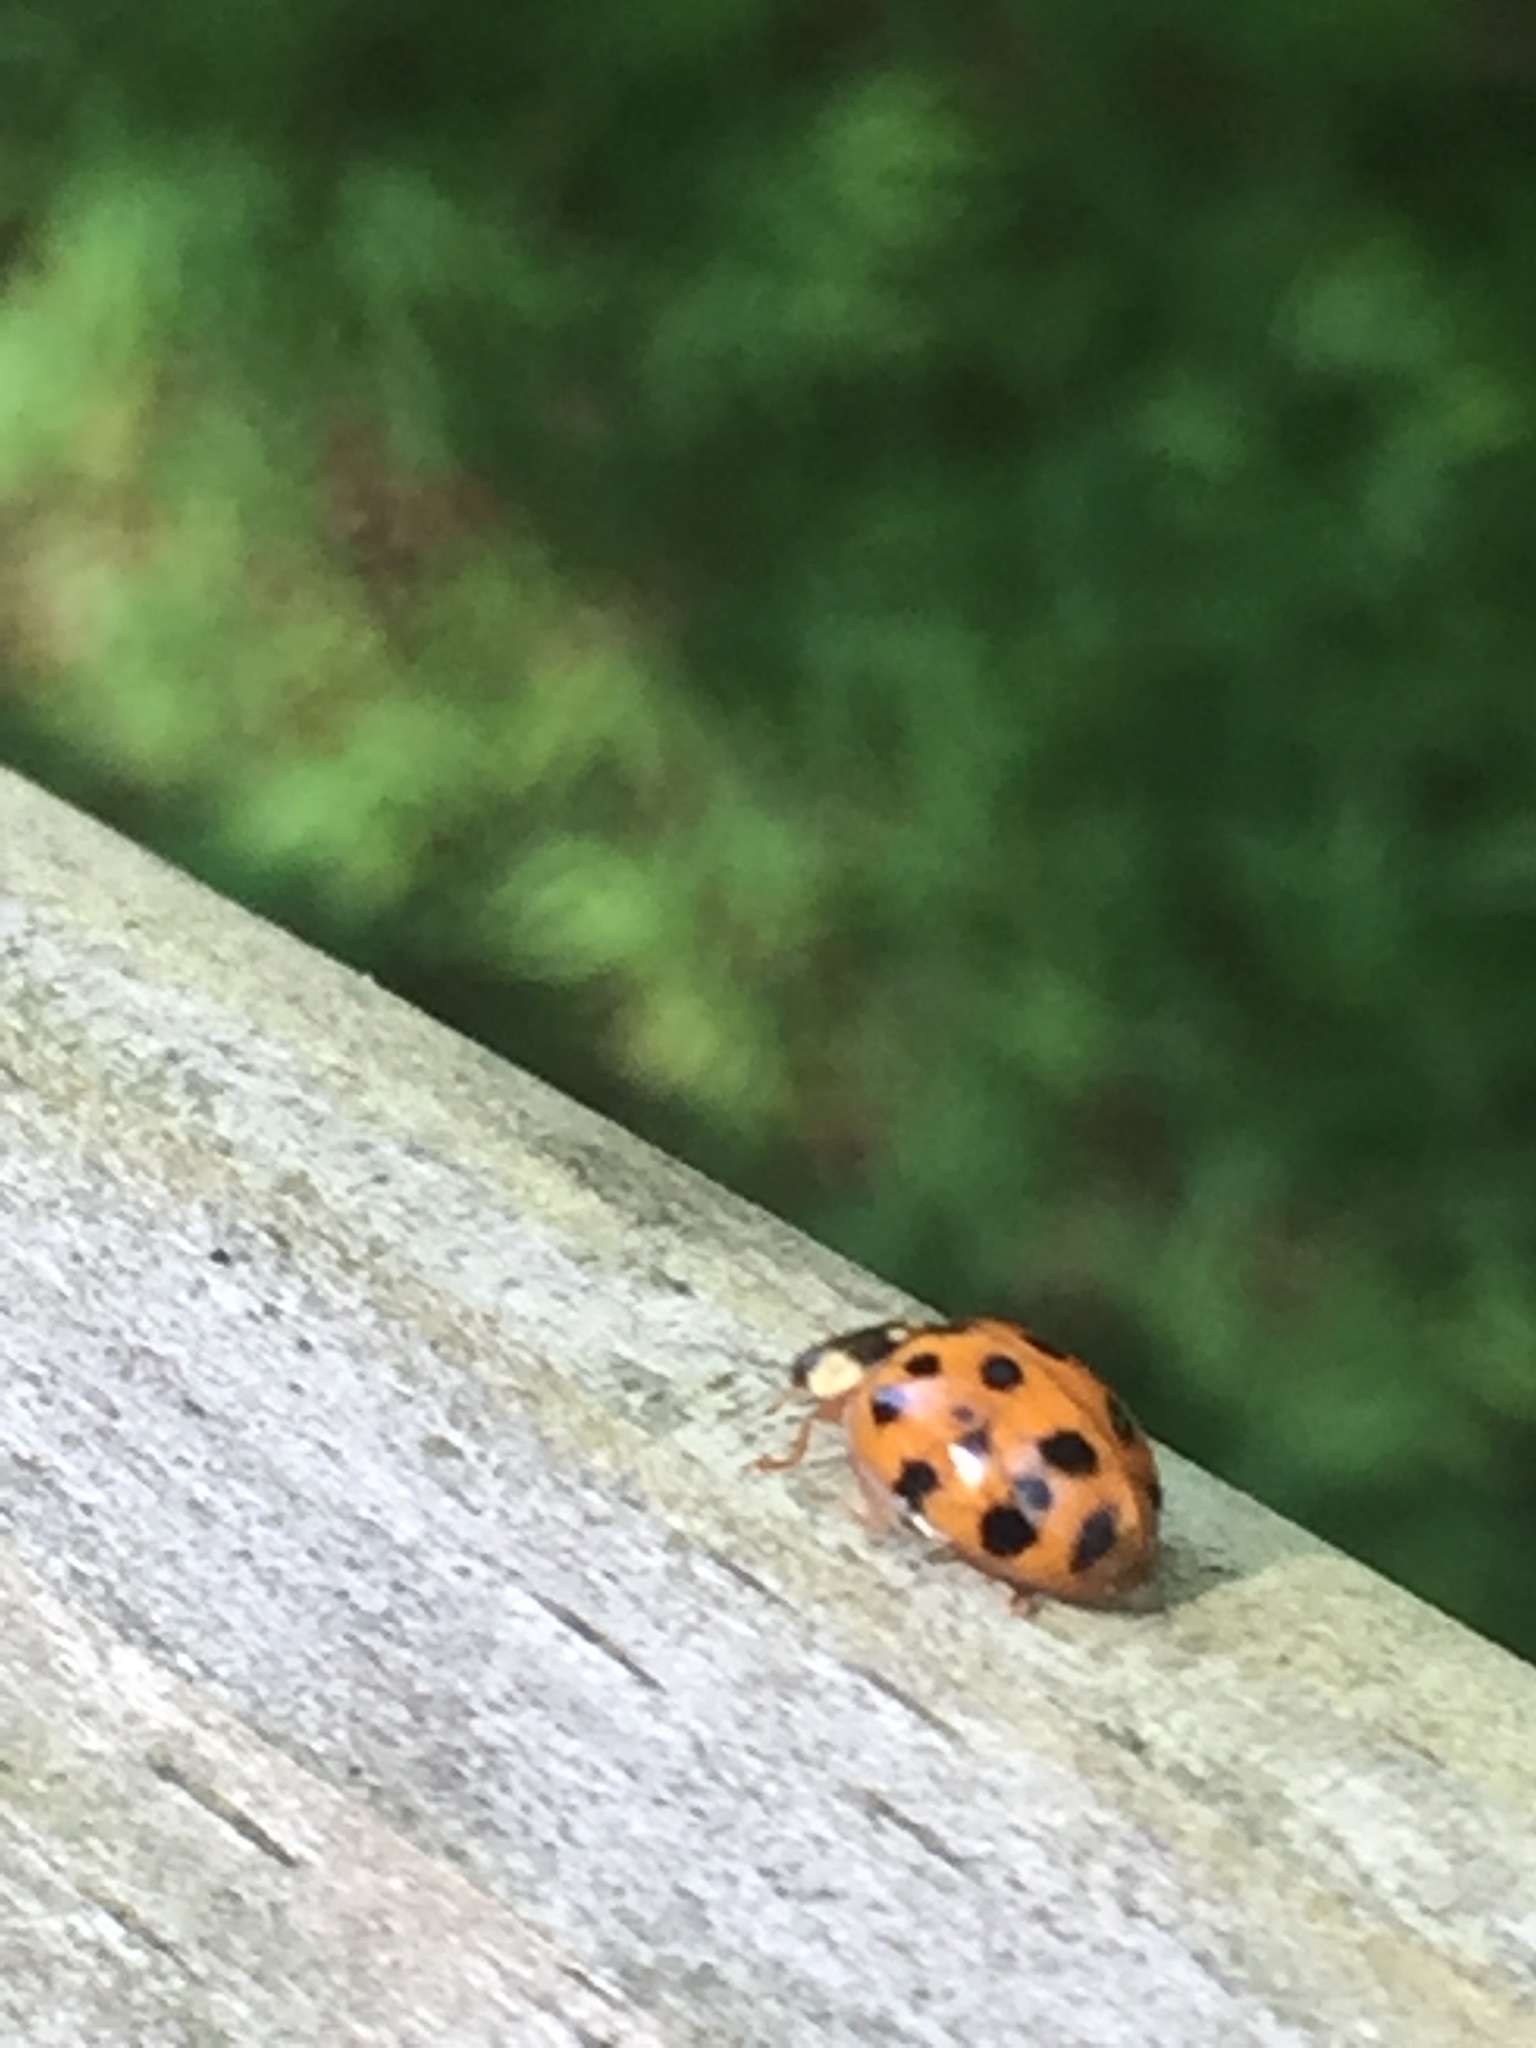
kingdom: Animalia
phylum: Arthropoda
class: Insecta
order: Coleoptera
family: Coccinellidae
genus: Harmonia
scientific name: Harmonia axyridis
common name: Harlequin ladybird
